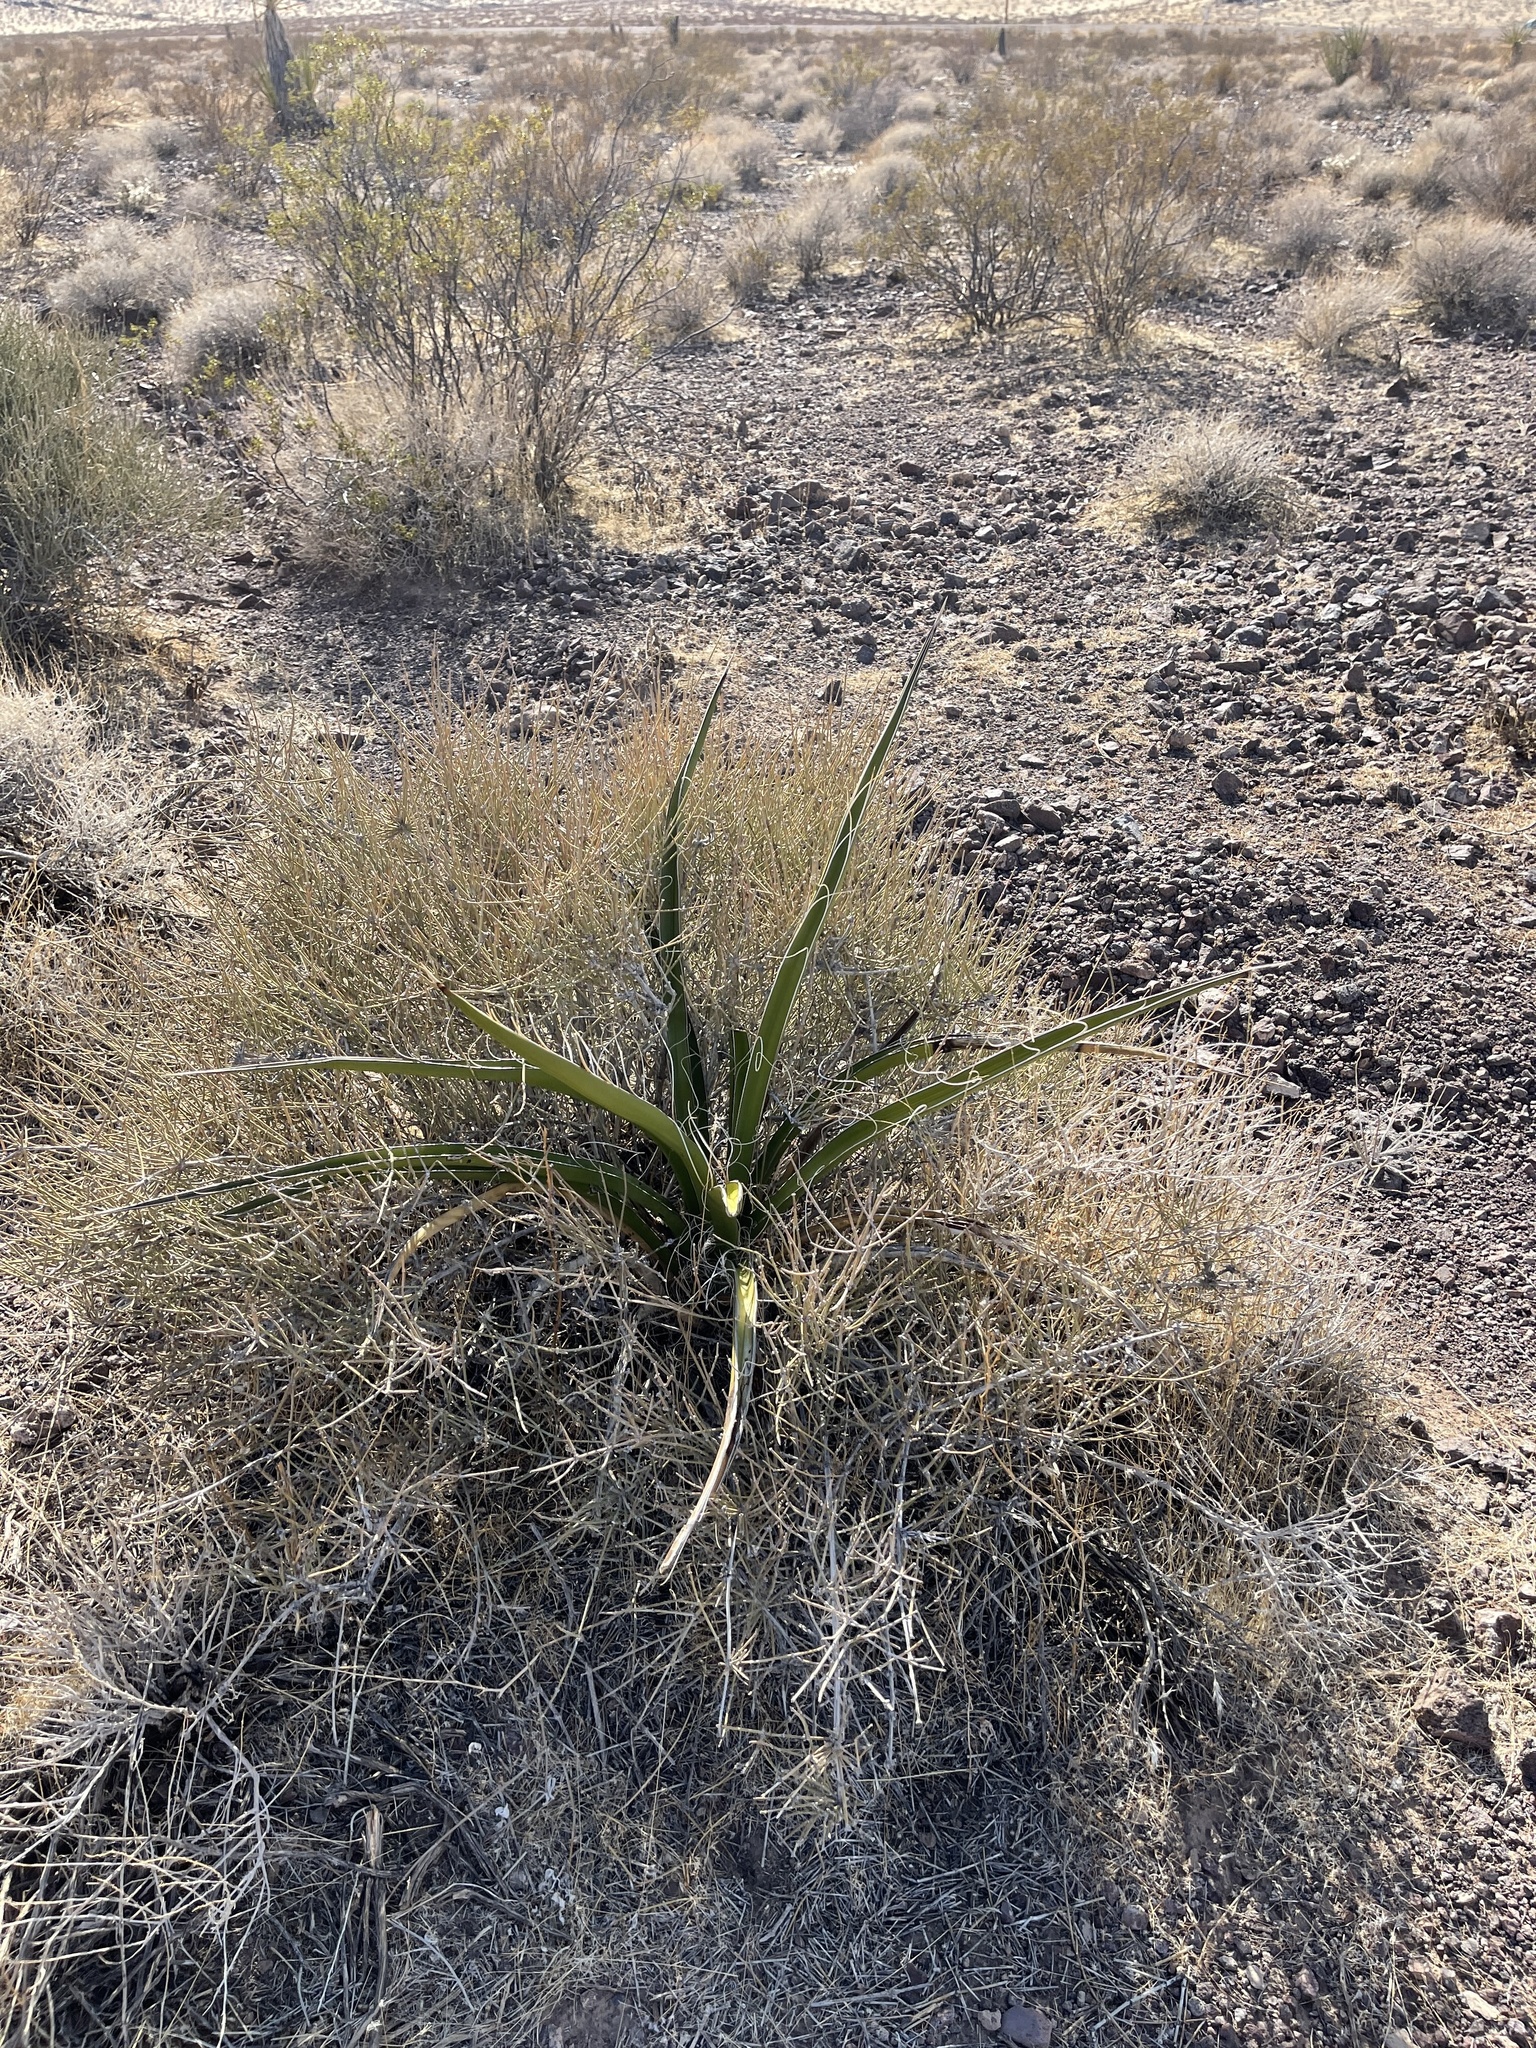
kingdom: Plantae
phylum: Tracheophyta
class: Liliopsida
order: Asparagales
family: Asparagaceae
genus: Yucca
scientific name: Yucca baccata
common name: Banana yucca
